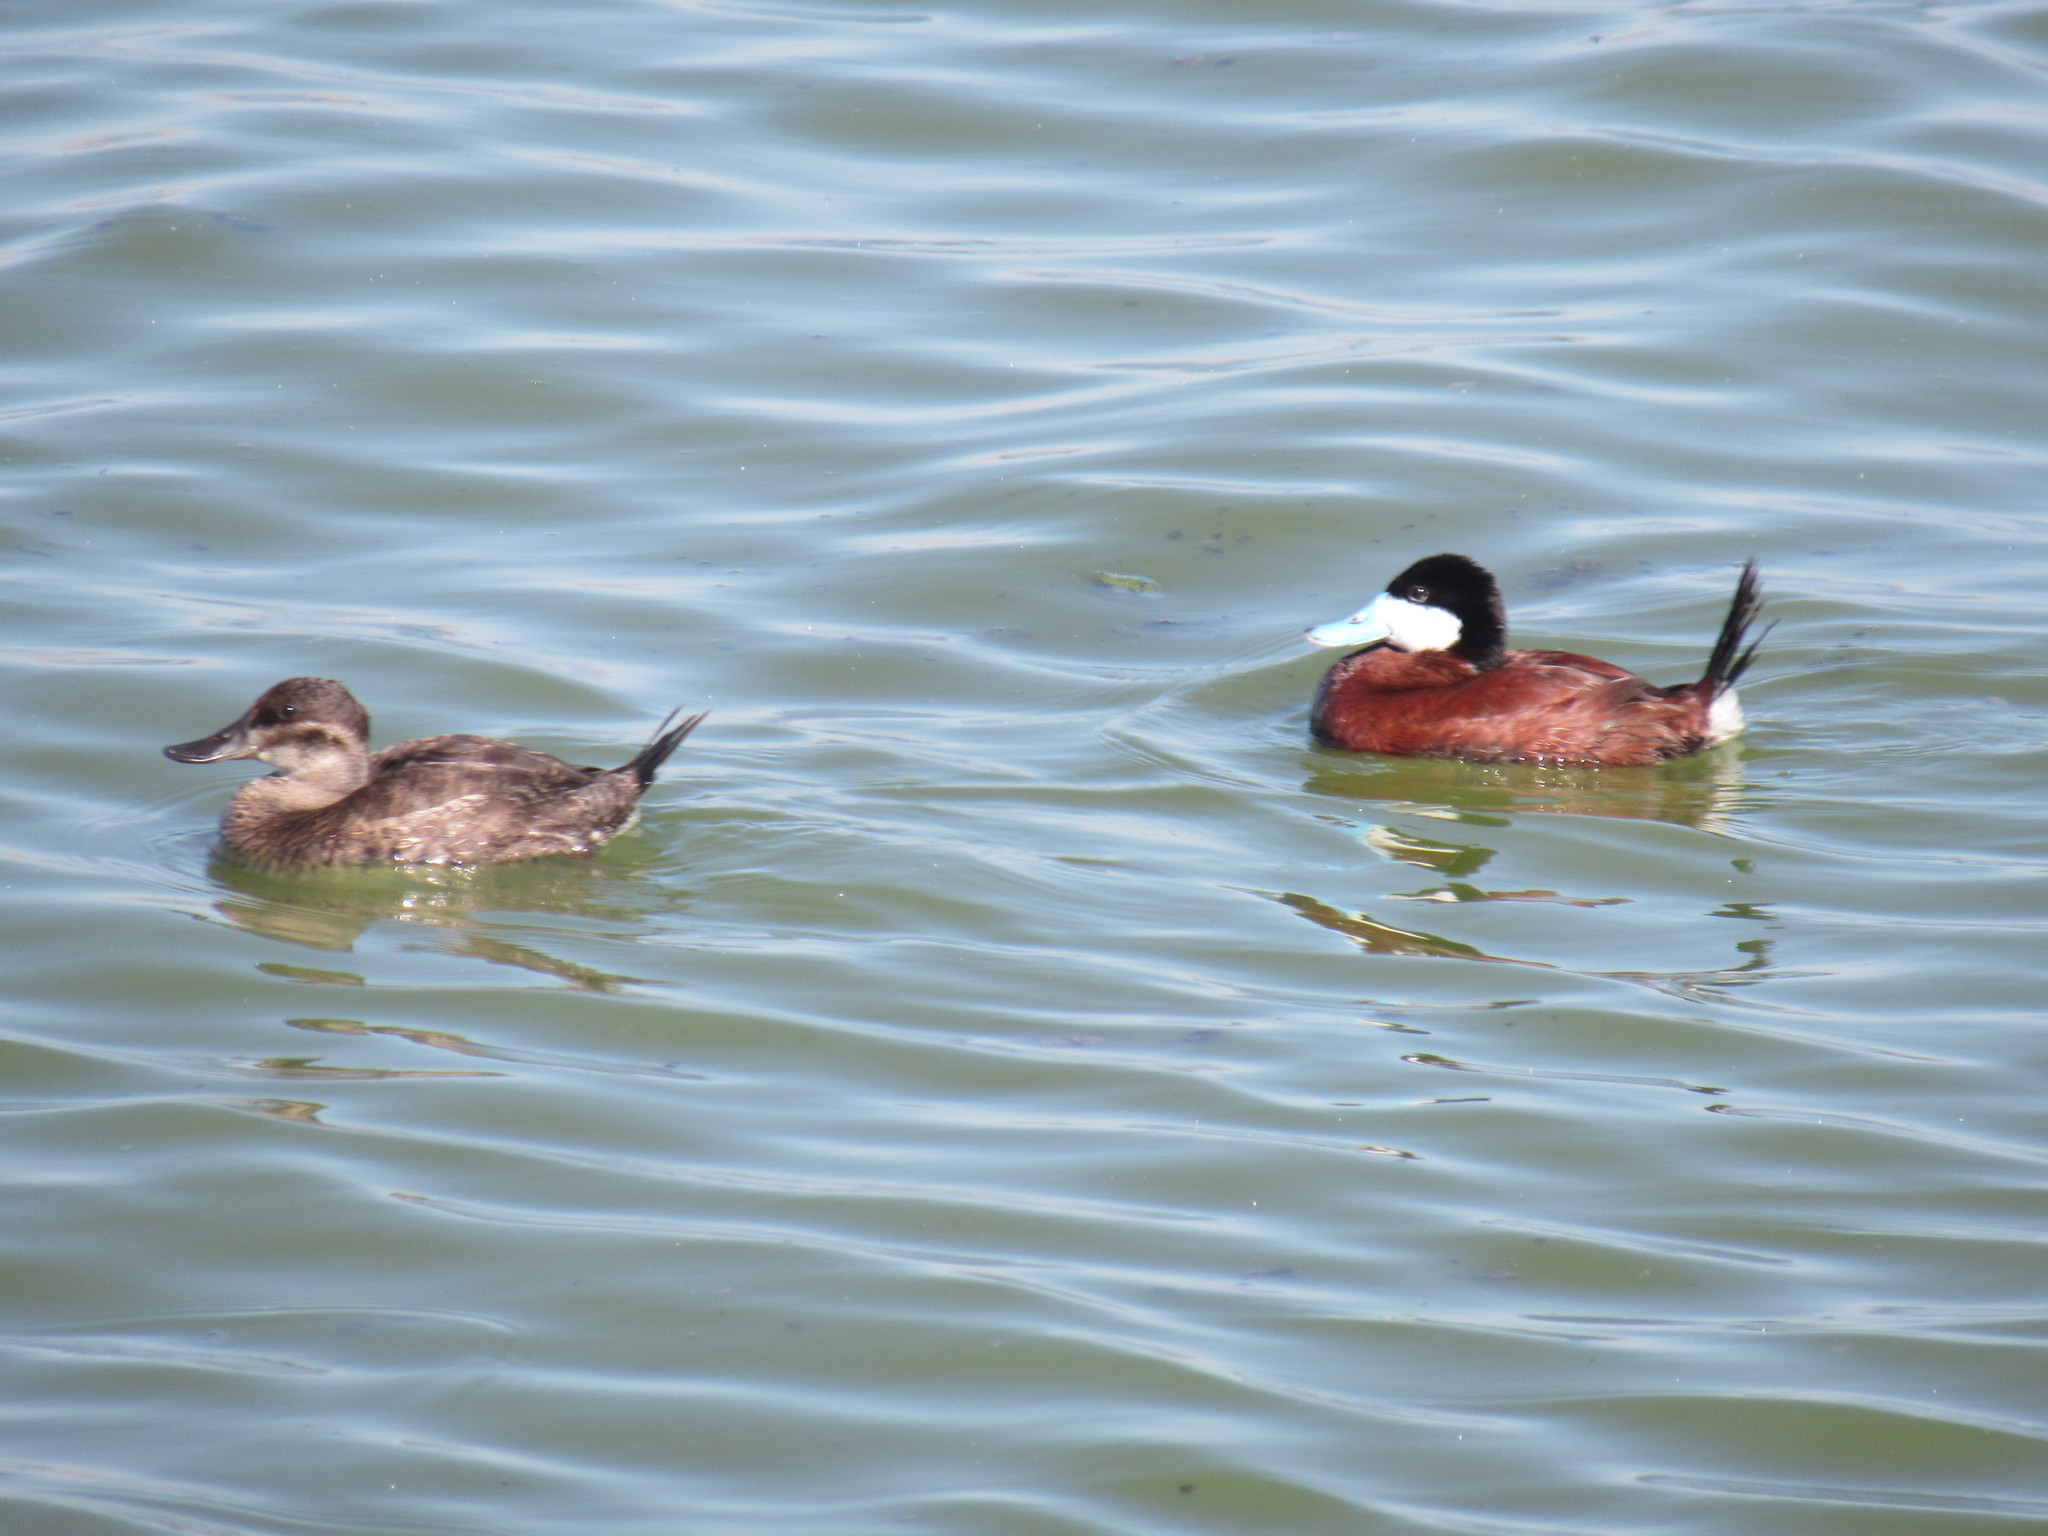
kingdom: Animalia
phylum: Chordata
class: Aves
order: Anseriformes
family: Anatidae
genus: Oxyura
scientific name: Oxyura jamaicensis
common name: Ruddy duck
